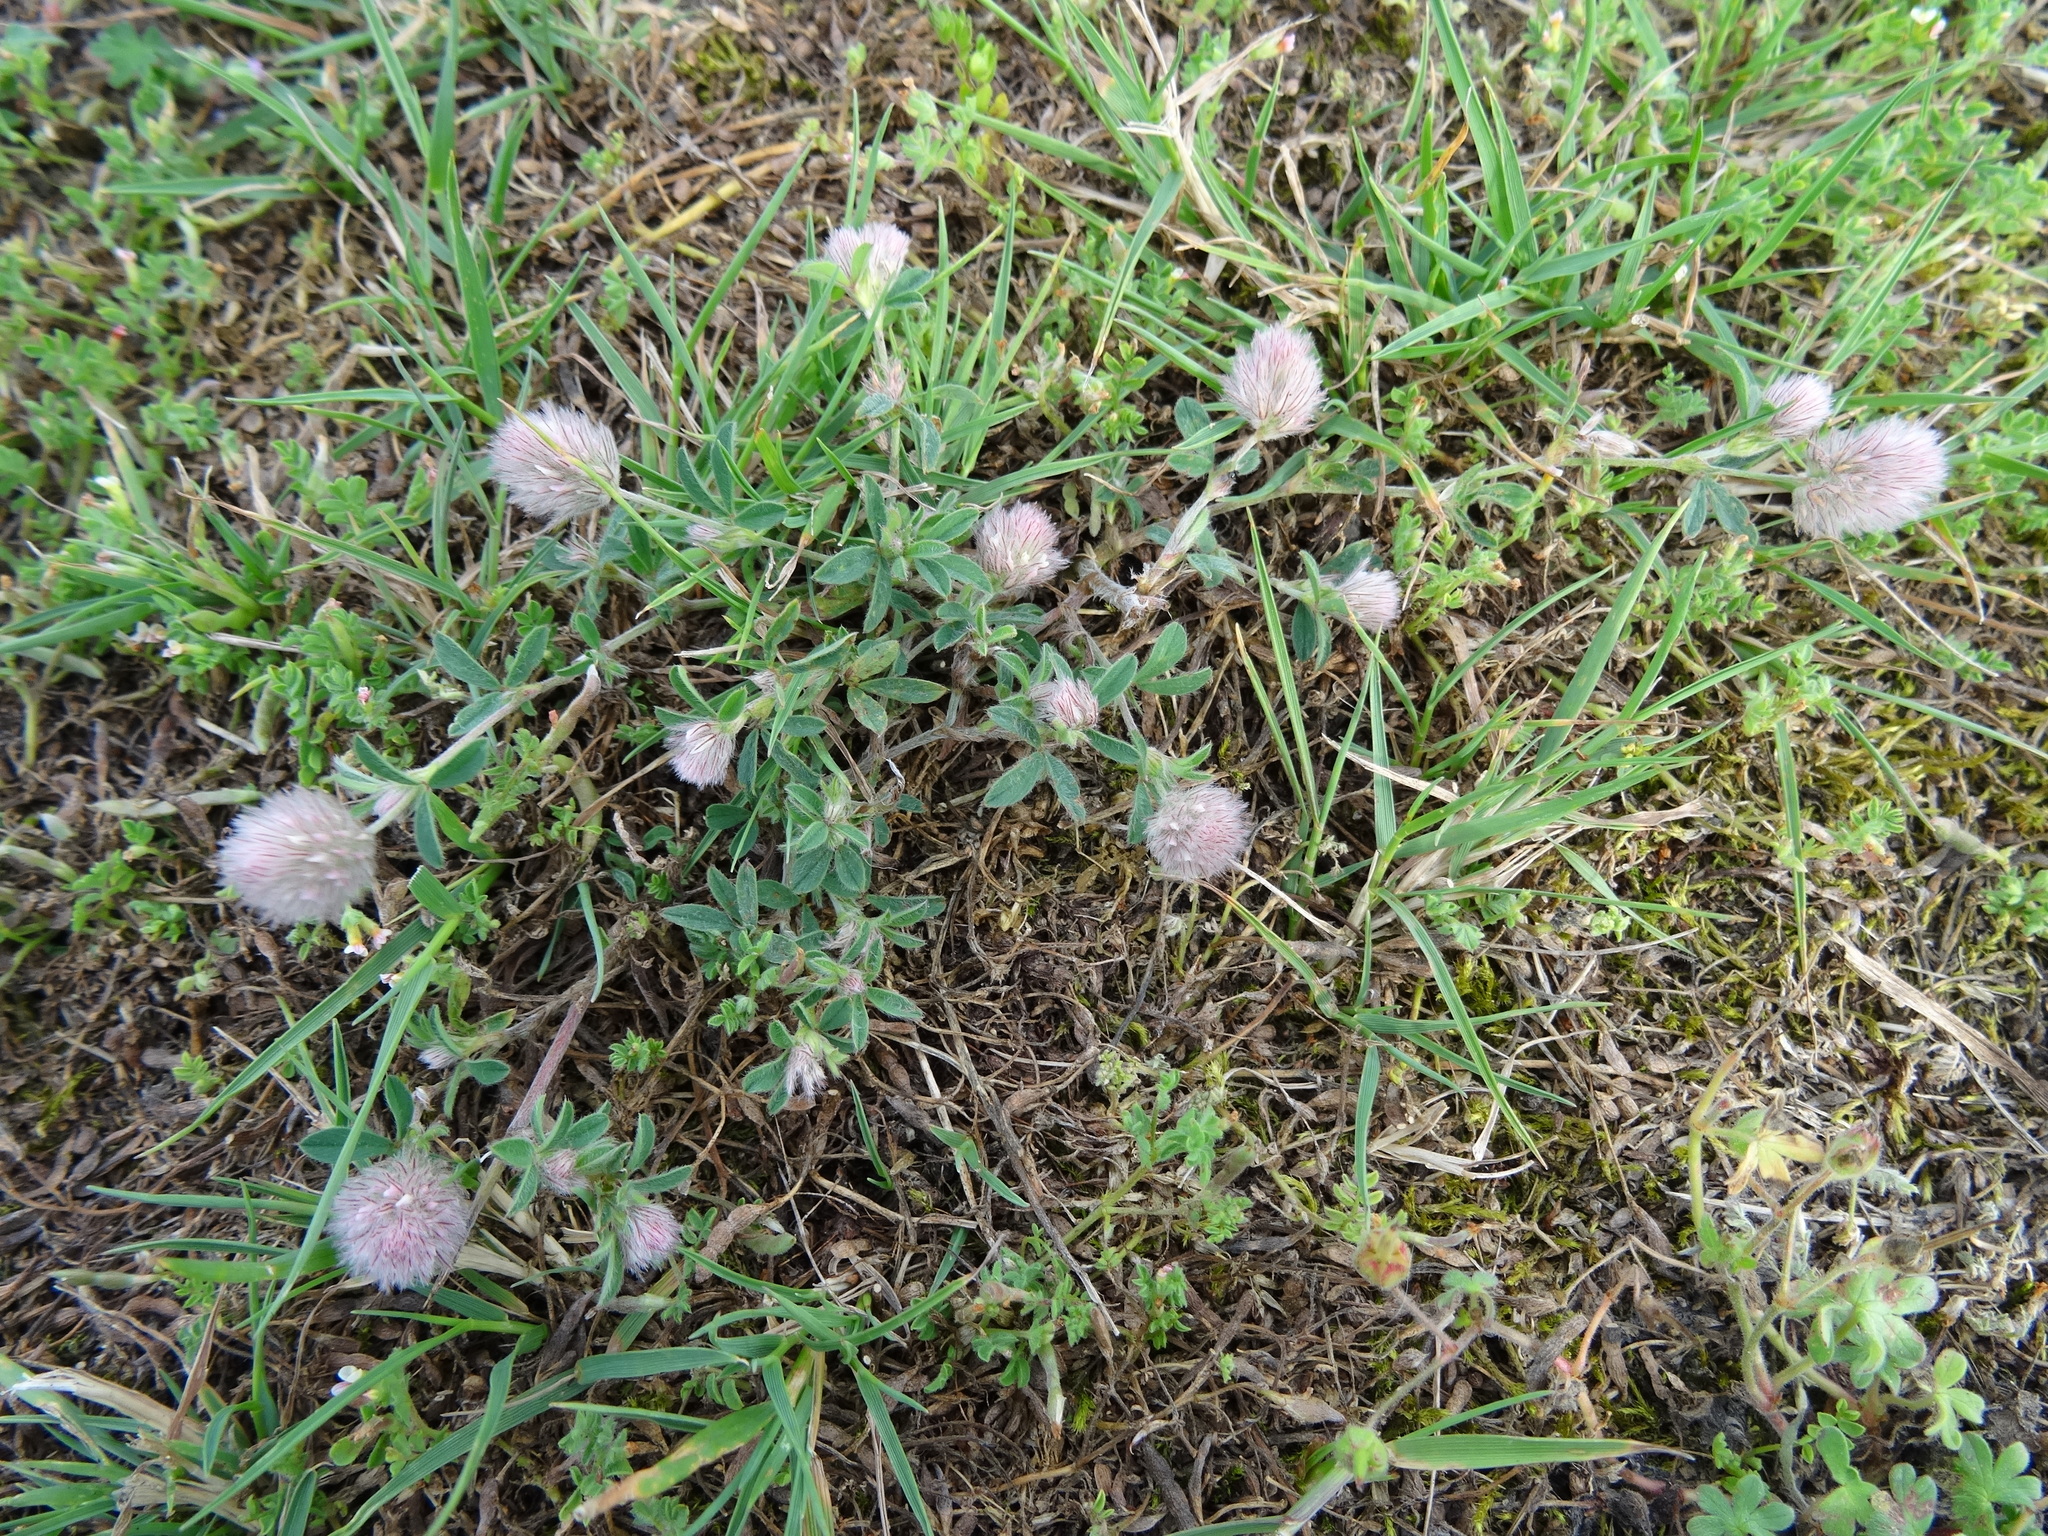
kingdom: Plantae
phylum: Tracheophyta
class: Magnoliopsida
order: Fabales
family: Fabaceae
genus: Trifolium
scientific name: Trifolium arvense
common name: Hare's-foot clover
